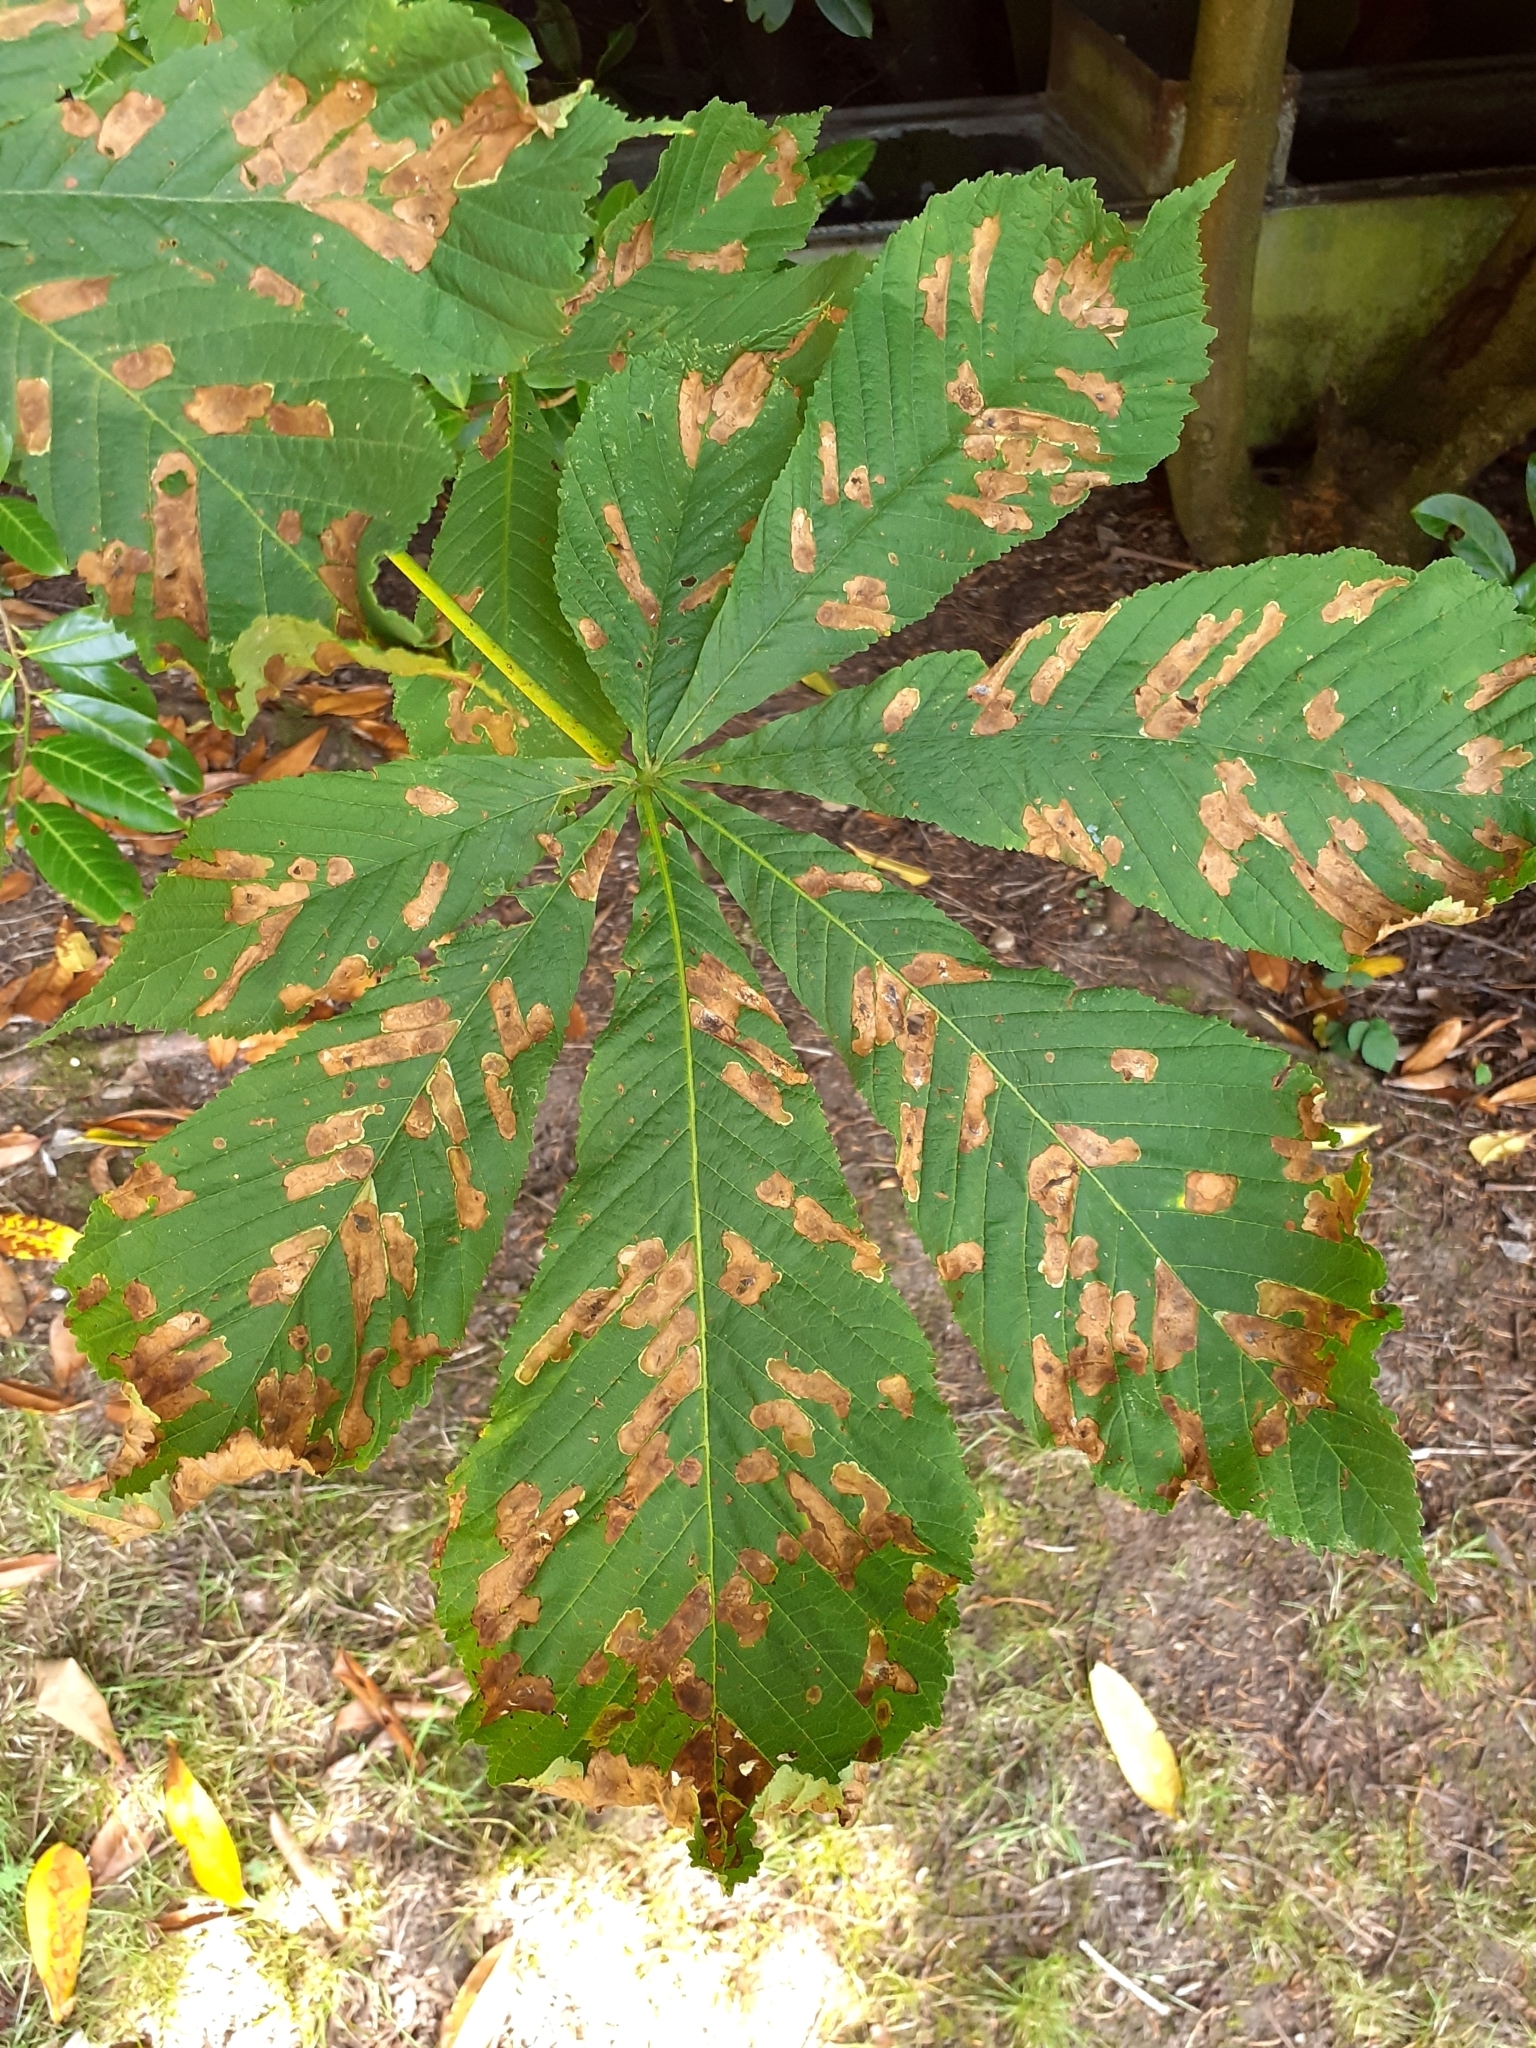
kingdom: Plantae
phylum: Tracheophyta
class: Magnoliopsida
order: Sapindales
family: Sapindaceae
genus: Aesculus
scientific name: Aesculus hippocastanum
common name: Horse-chestnut
